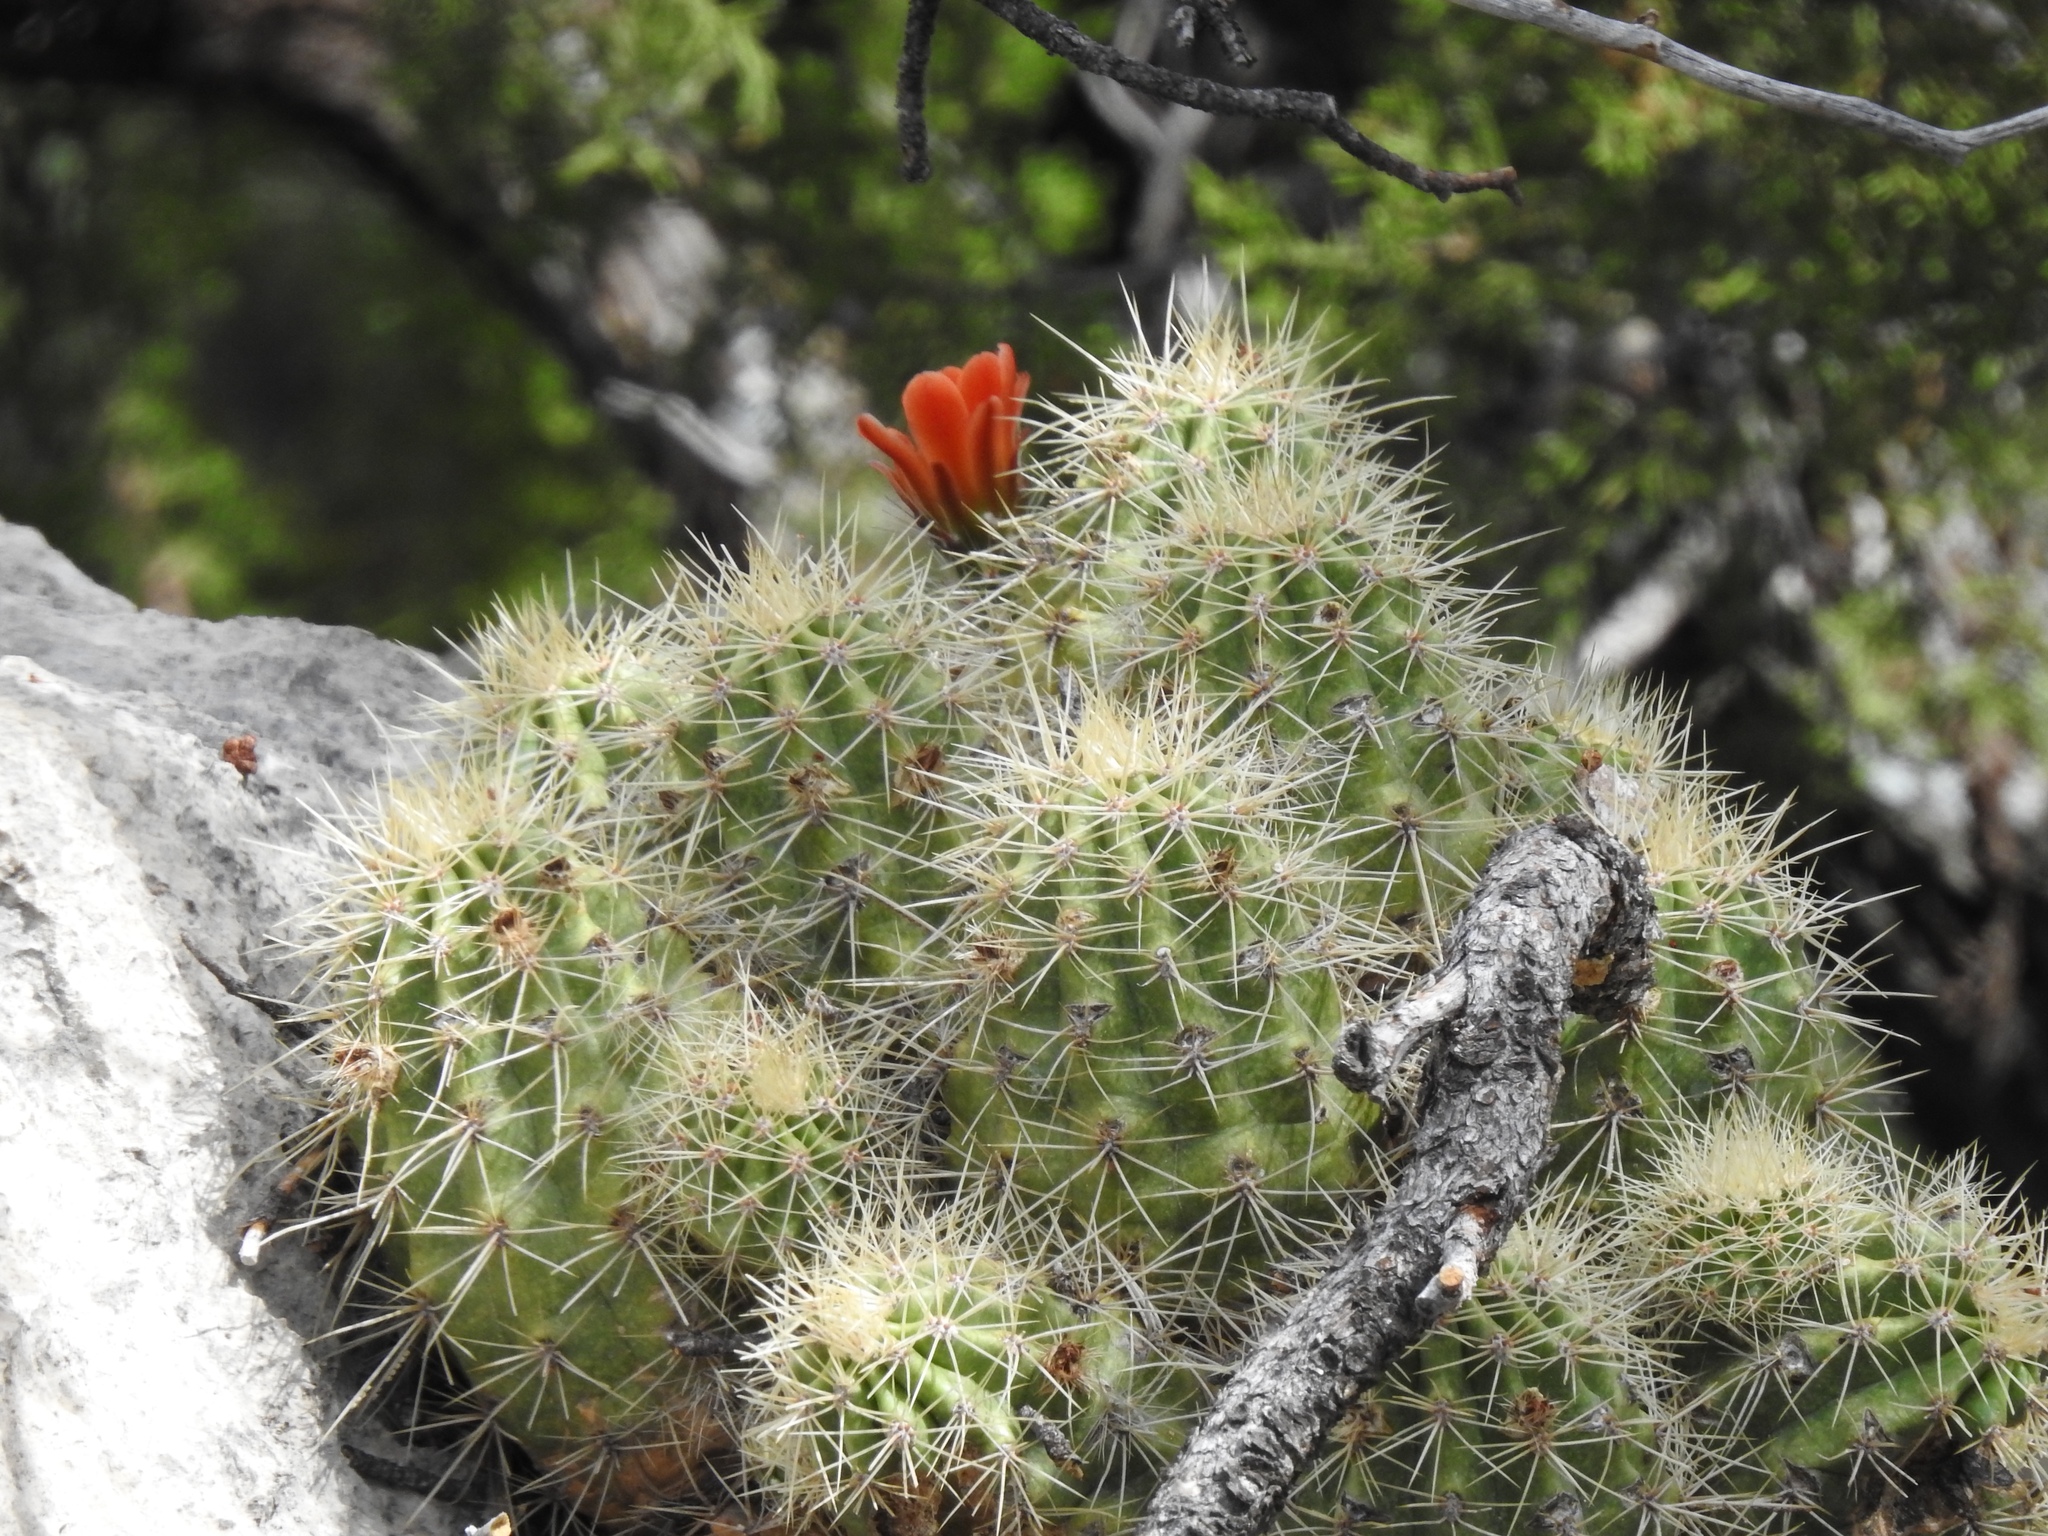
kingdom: Plantae
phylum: Tracheophyta
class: Magnoliopsida
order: Caryophyllales
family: Cactaceae
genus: Echinocereus
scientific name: Echinocereus coccineus
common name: Scarlet hedgehog cactus
